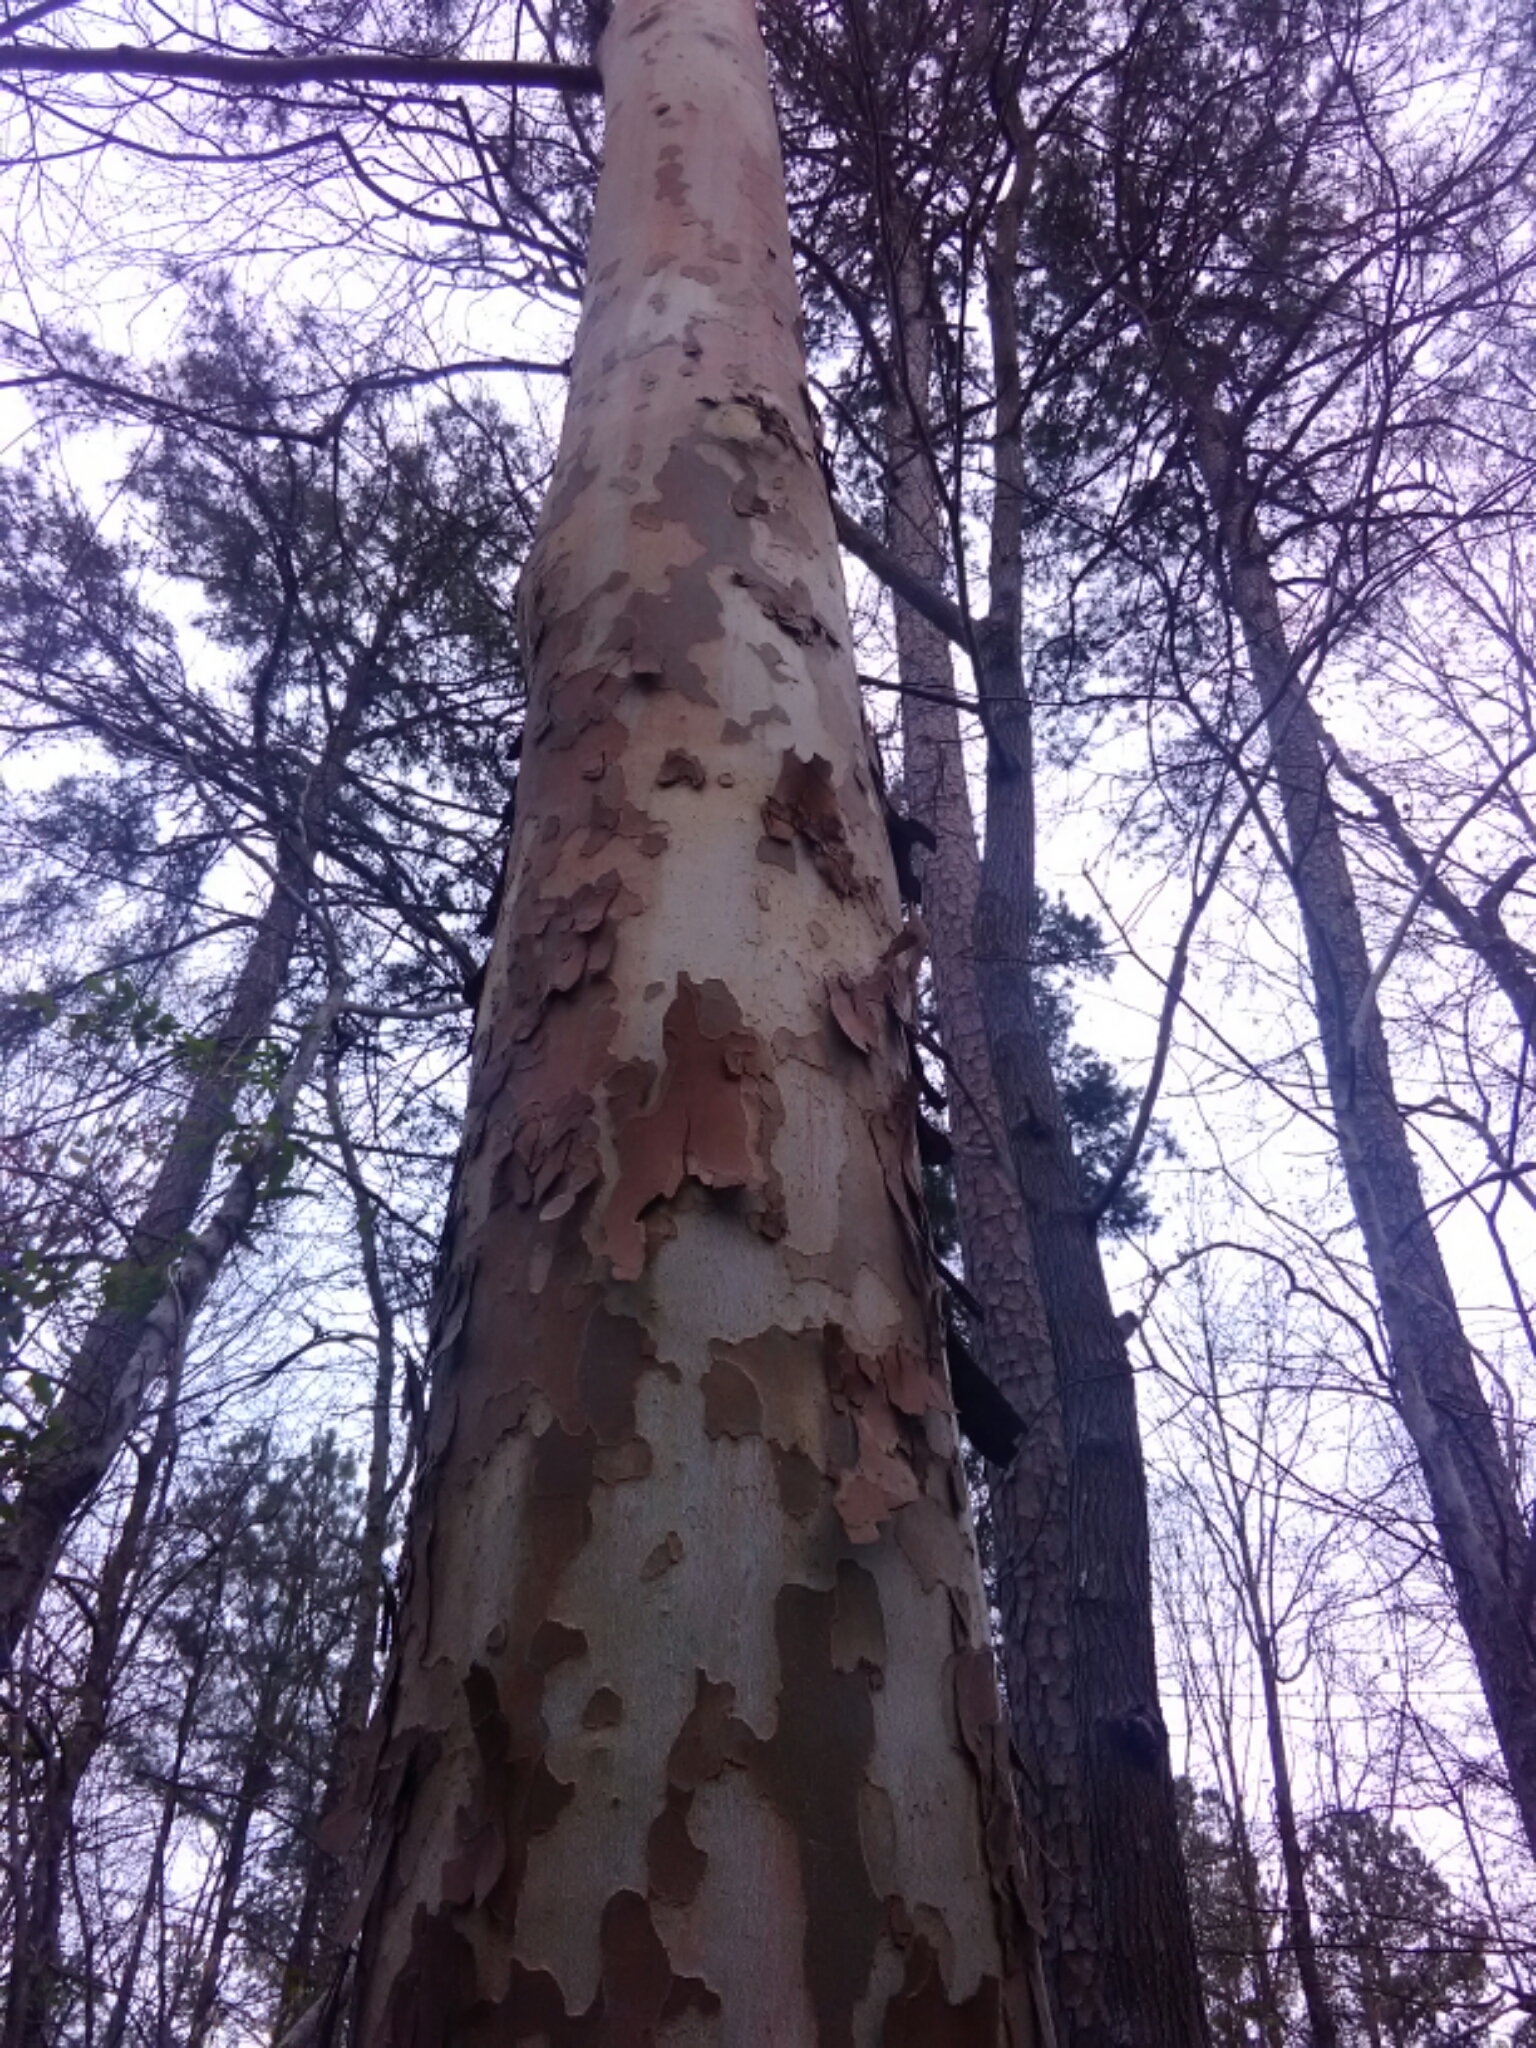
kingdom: Plantae
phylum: Tracheophyta
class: Magnoliopsida
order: Proteales
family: Platanaceae
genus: Platanus
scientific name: Platanus occidentalis
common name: American sycamore
